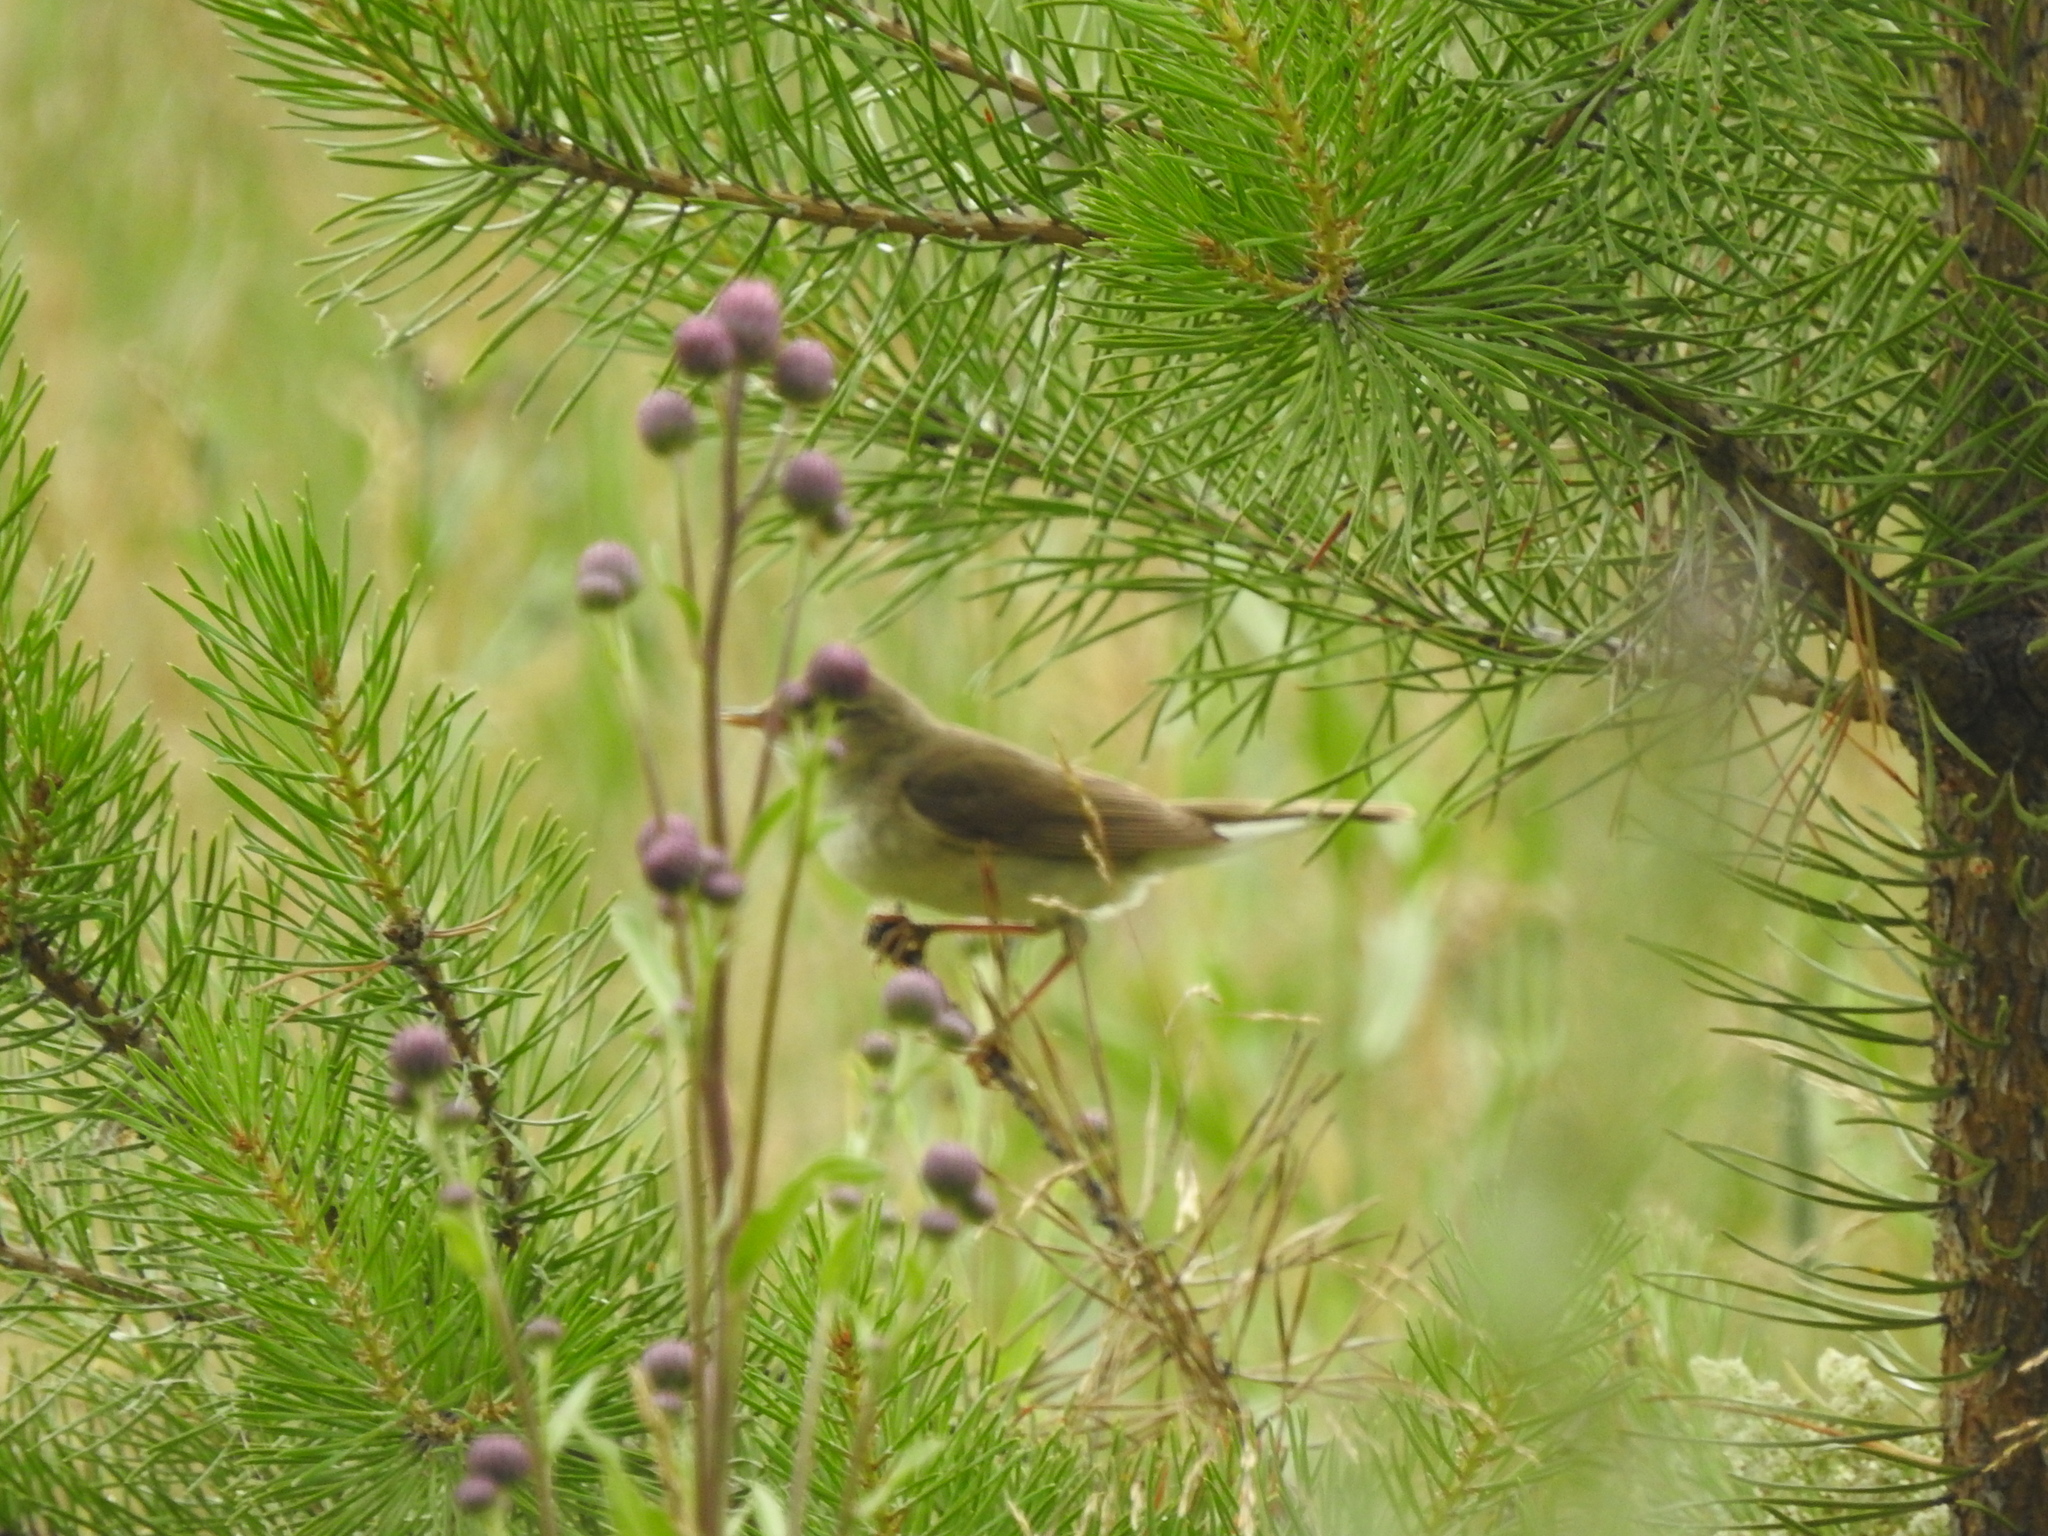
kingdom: Animalia
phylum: Chordata
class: Aves
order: Passeriformes
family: Acrocephalidae
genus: Acrocephalus
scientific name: Acrocephalus dumetorum
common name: Blyth's reed warbler
